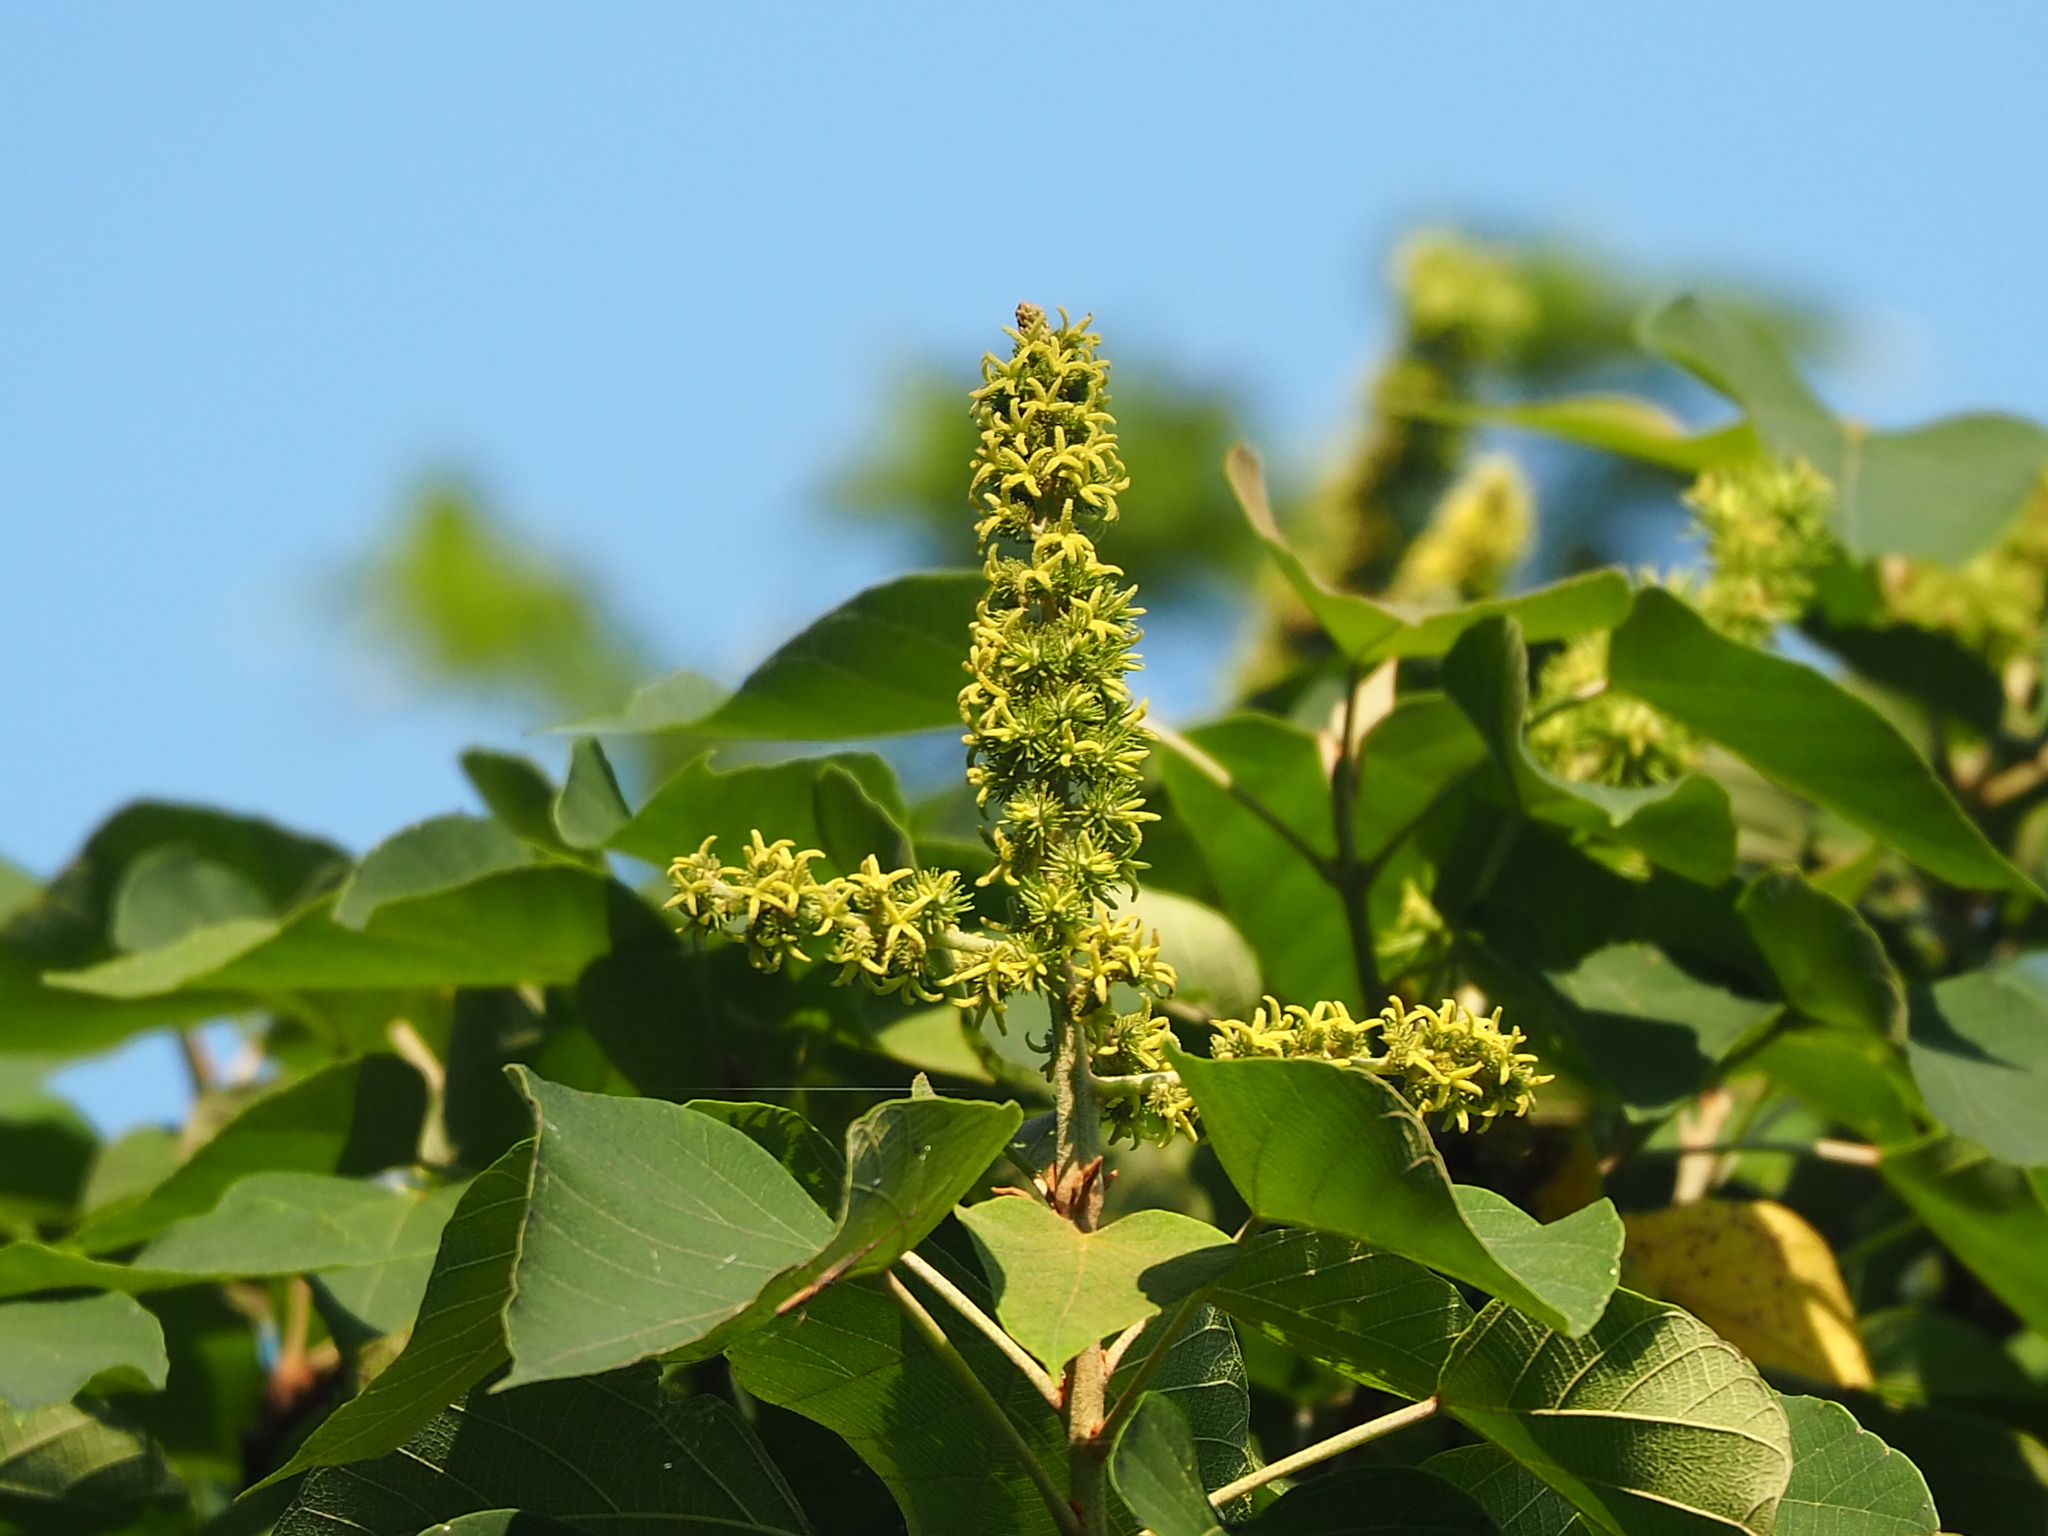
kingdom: Plantae
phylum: Tracheophyta
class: Magnoliopsida
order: Malpighiales
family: Euphorbiaceae
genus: Mallotus
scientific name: Mallotus japonicus
